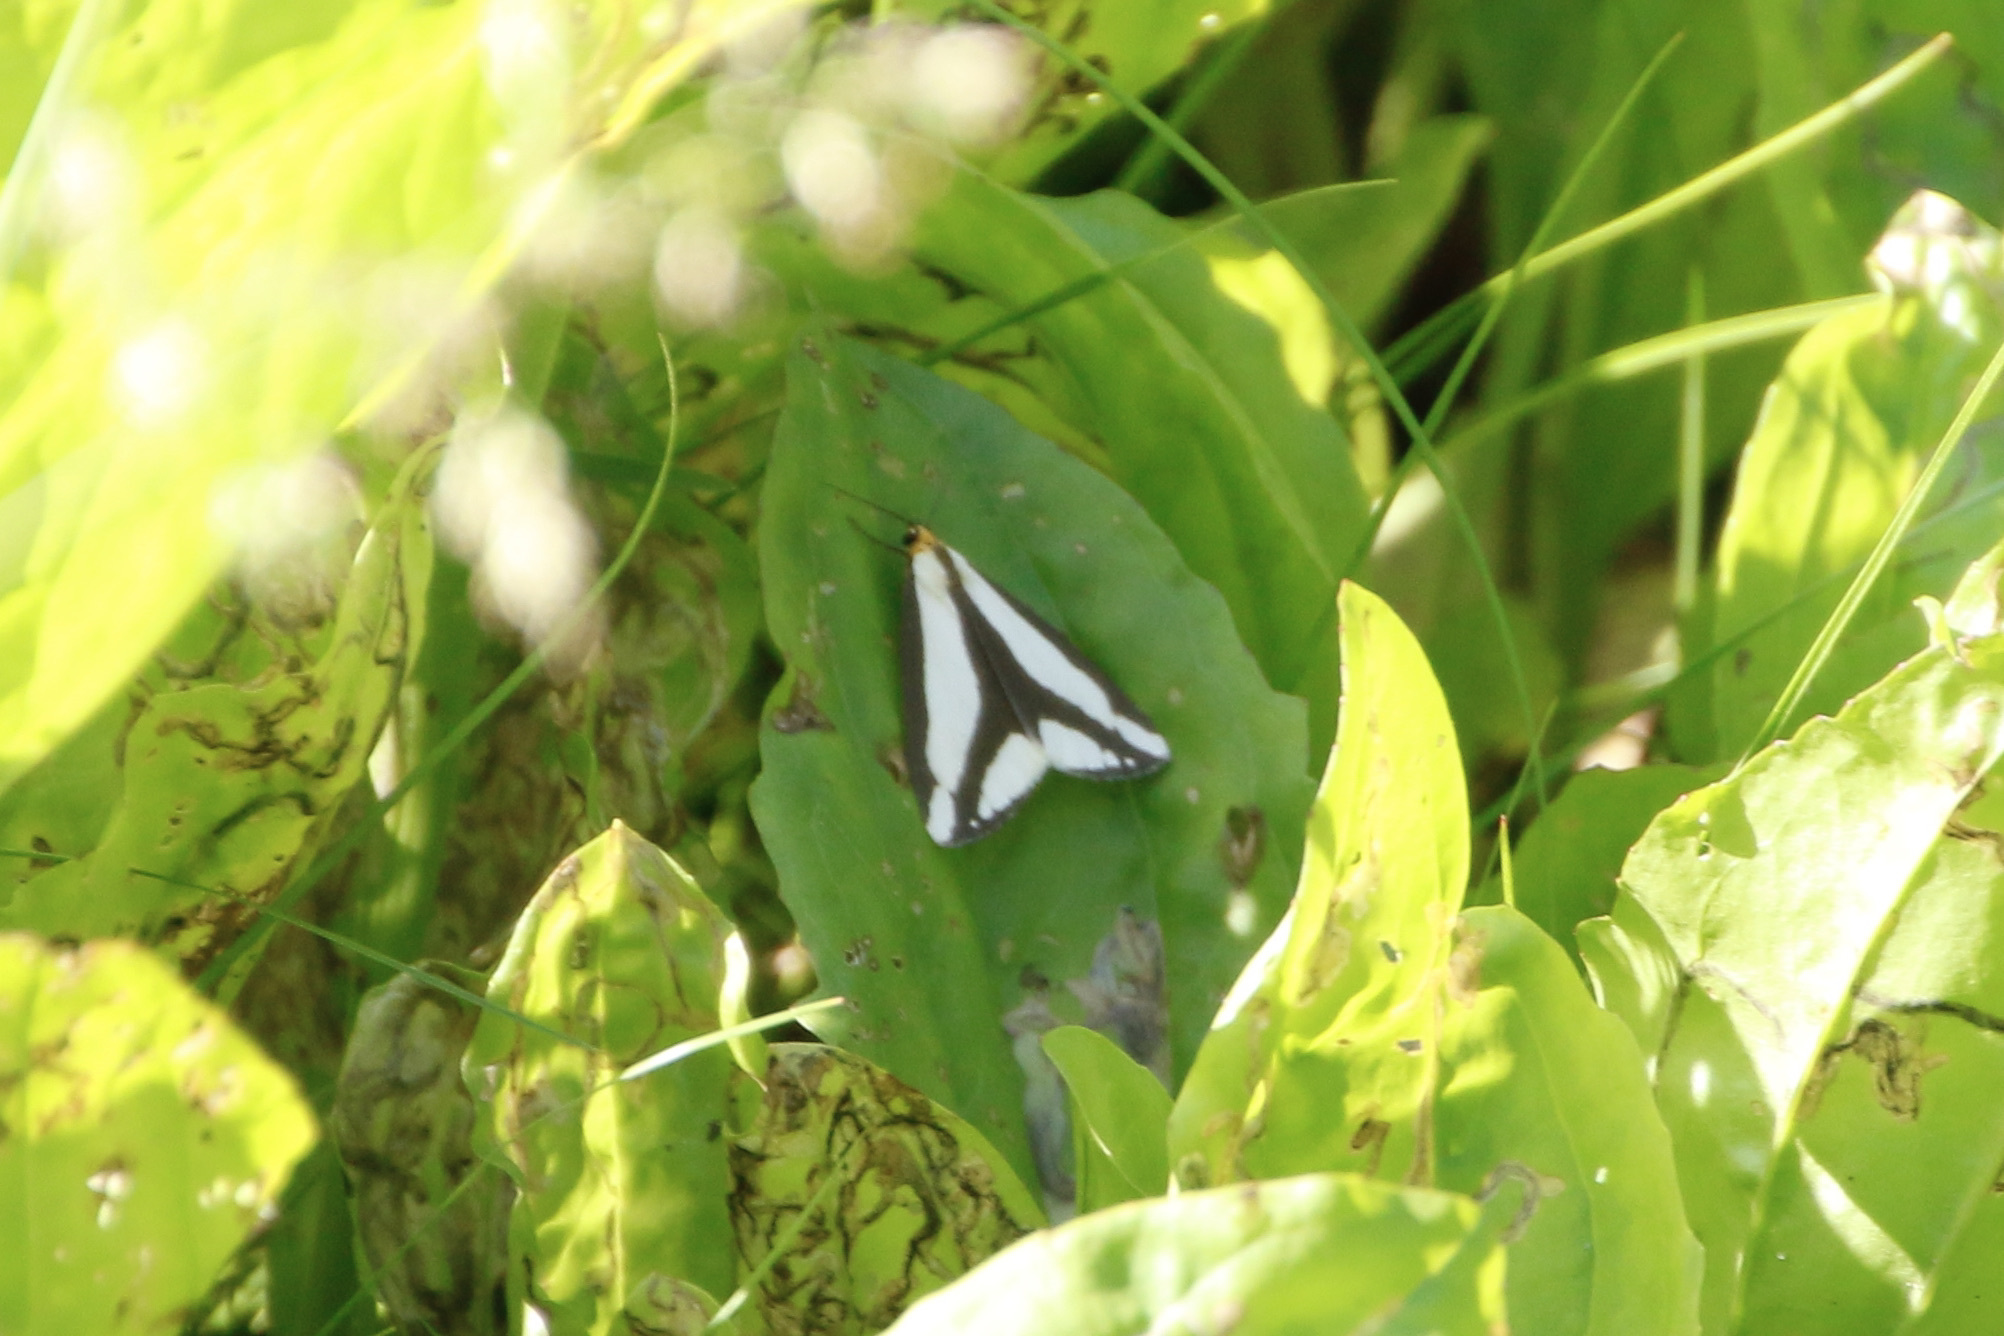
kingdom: Animalia
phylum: Arthropoda
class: Insecta
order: Lepidoptera
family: Erebidae
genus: Haploa
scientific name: Haploa lecontei
